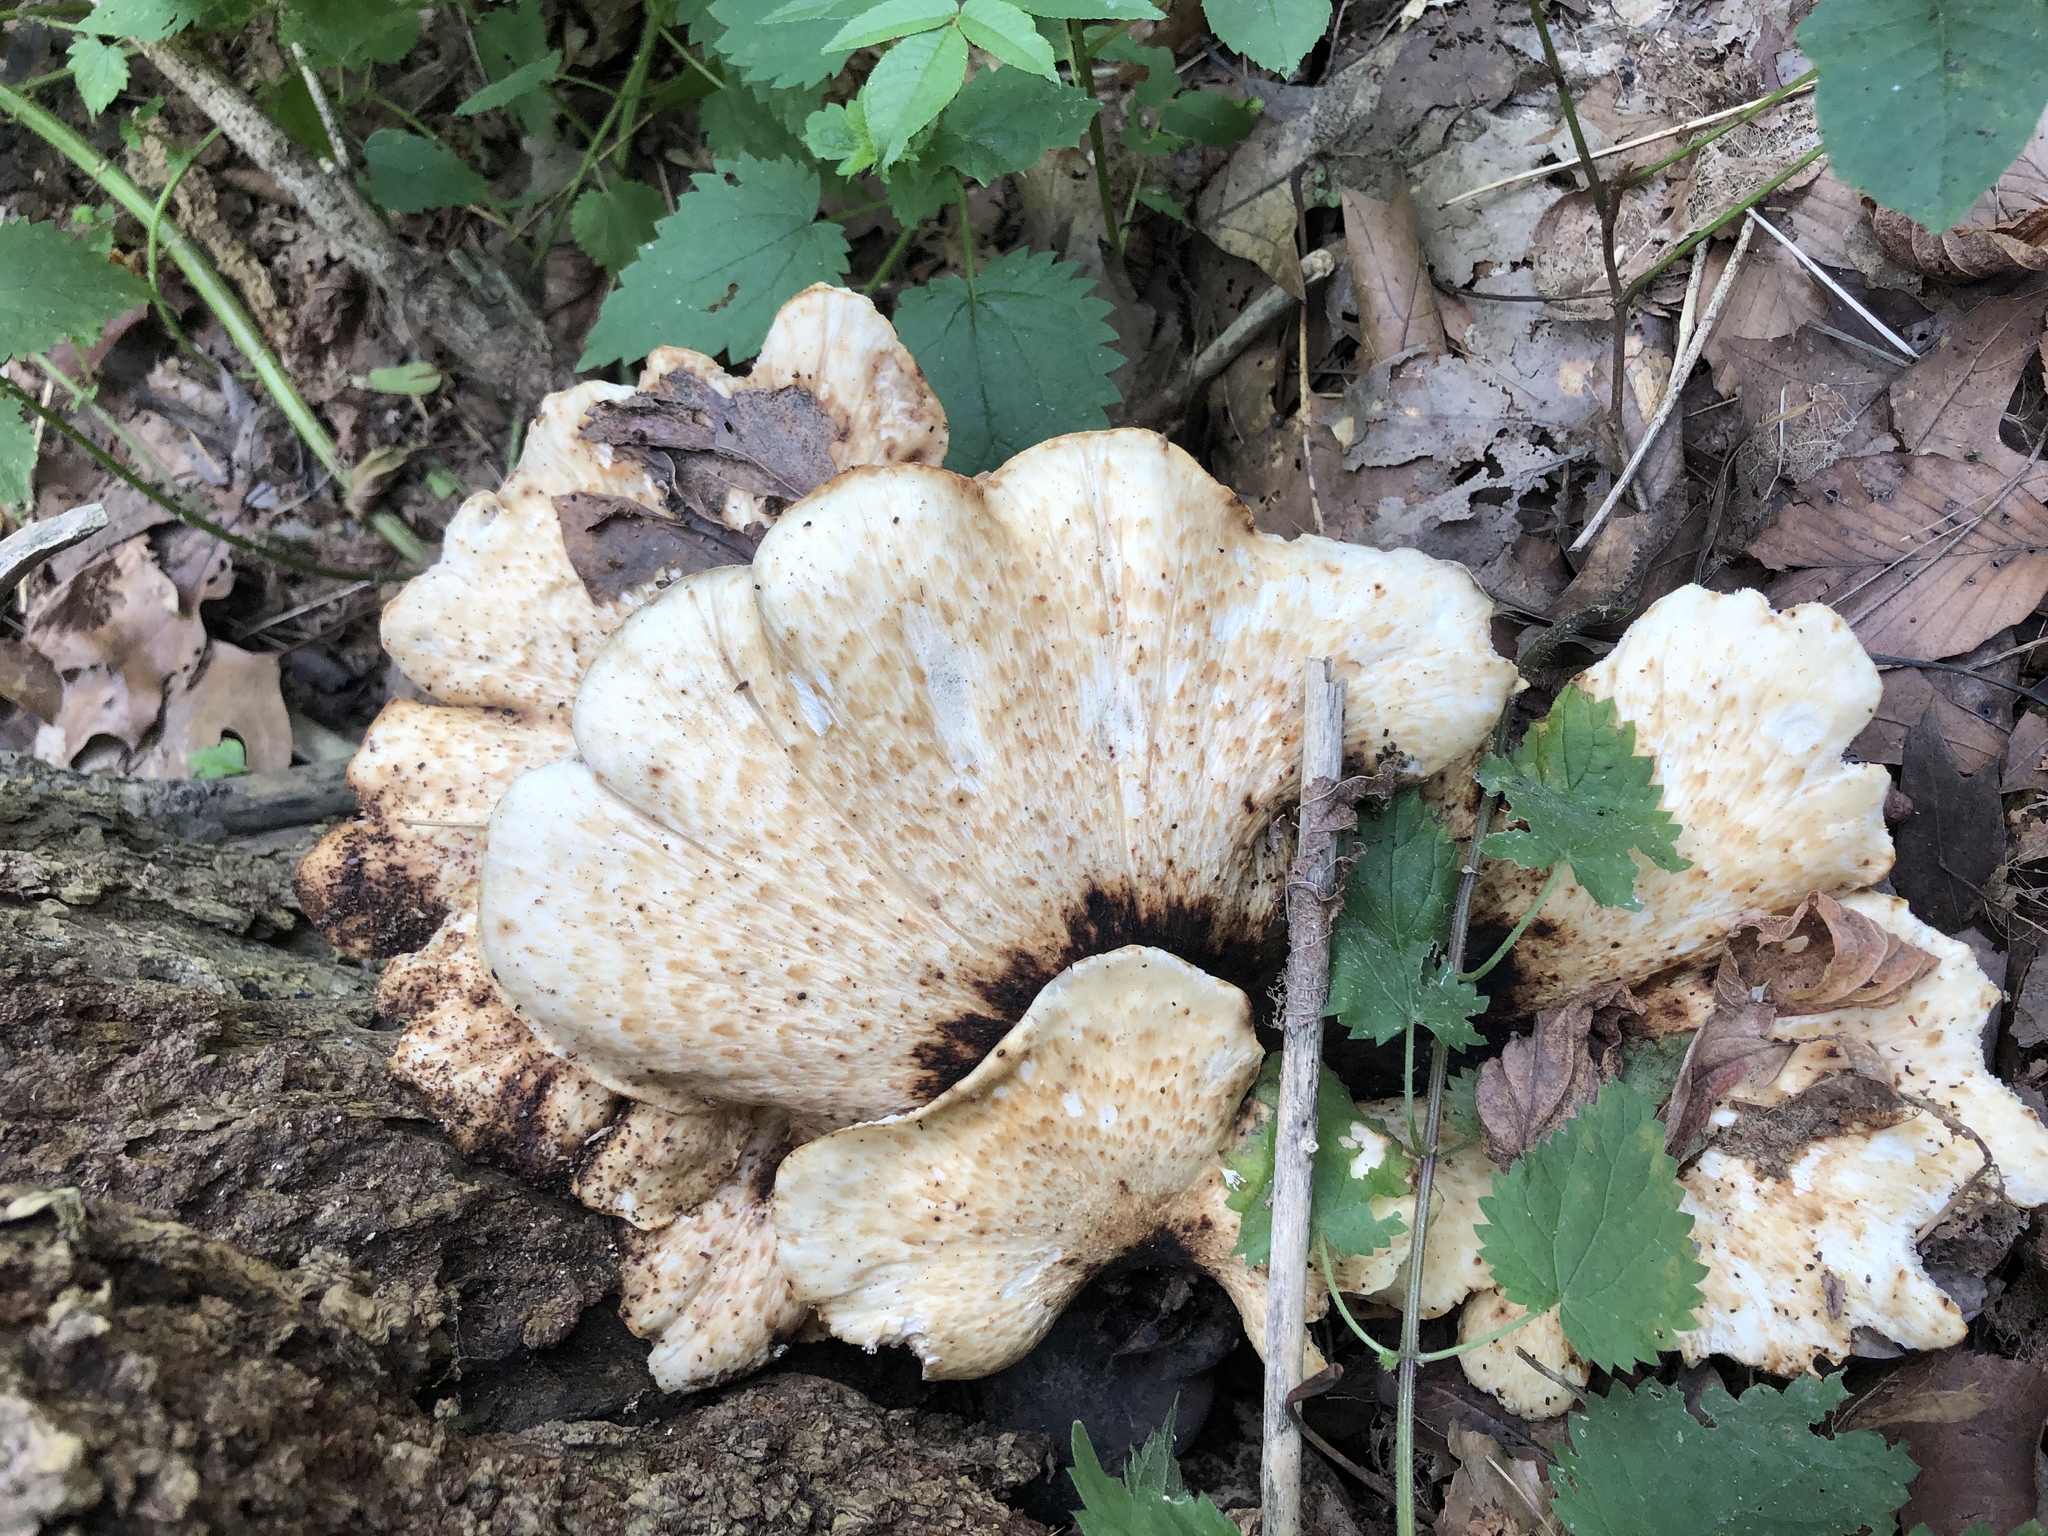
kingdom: Fungi
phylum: Basidiomycota
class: Agaricomycetes
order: Polyporales
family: Polyporaceae
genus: Cerioporus
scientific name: Cerioporus squamosus
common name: Dryad's saddle
